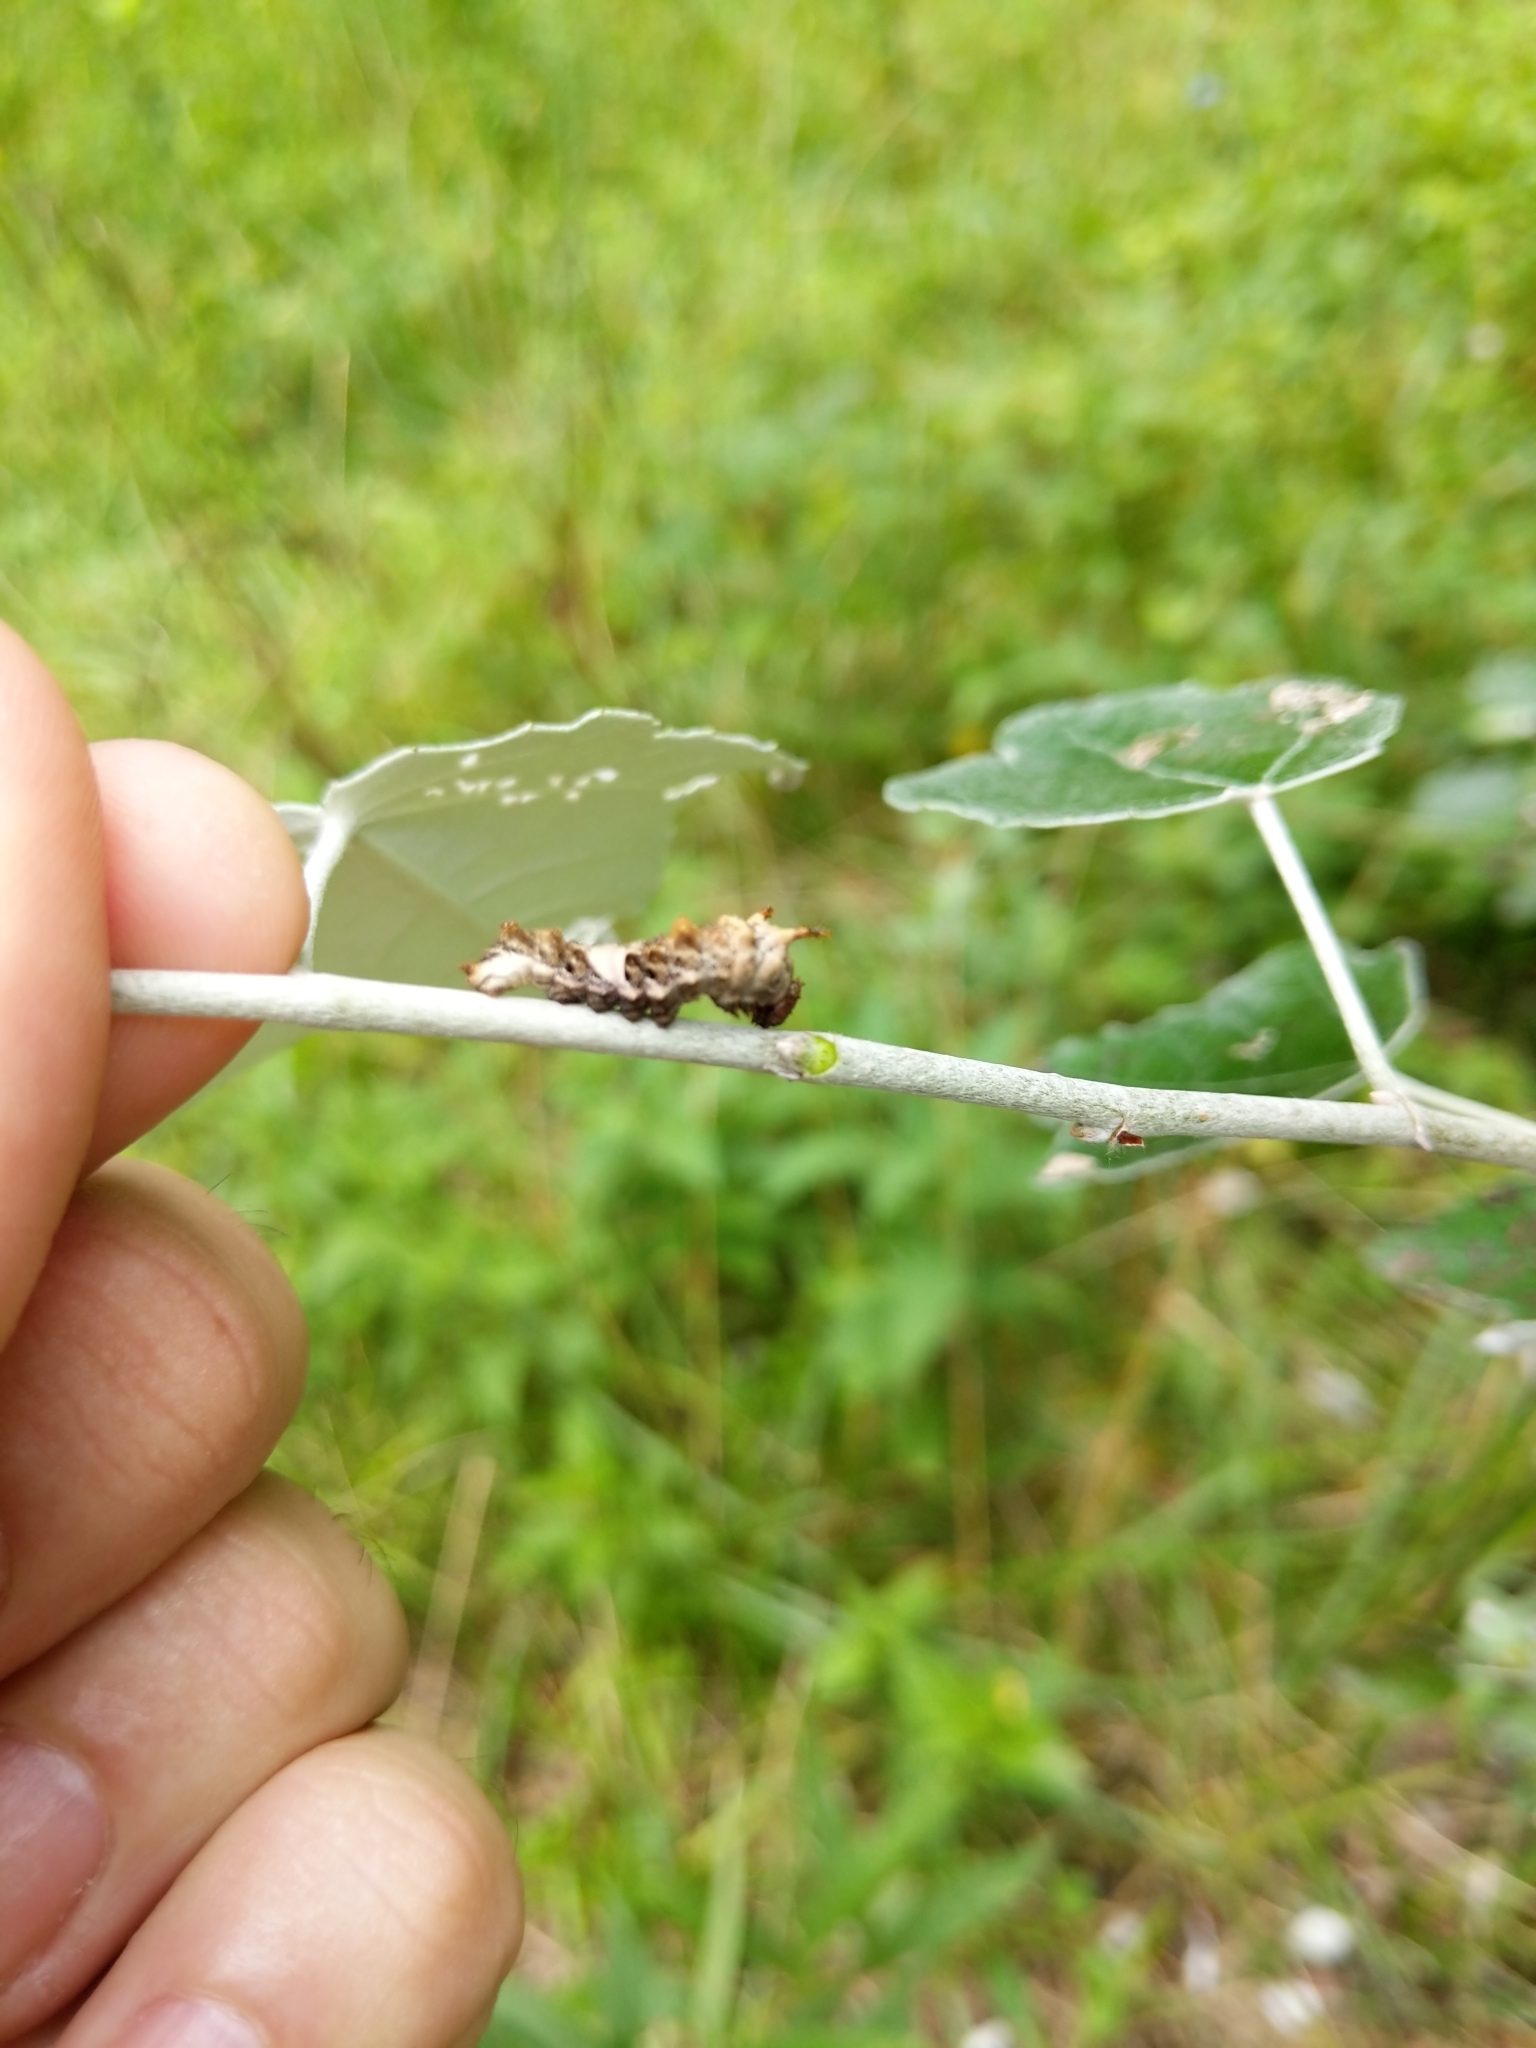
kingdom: Animalia
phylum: Arthropoda
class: Insecta
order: Lepidoptera
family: Nymphalidae
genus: Limenitis
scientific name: Limenitis archippus
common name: Viceroy
